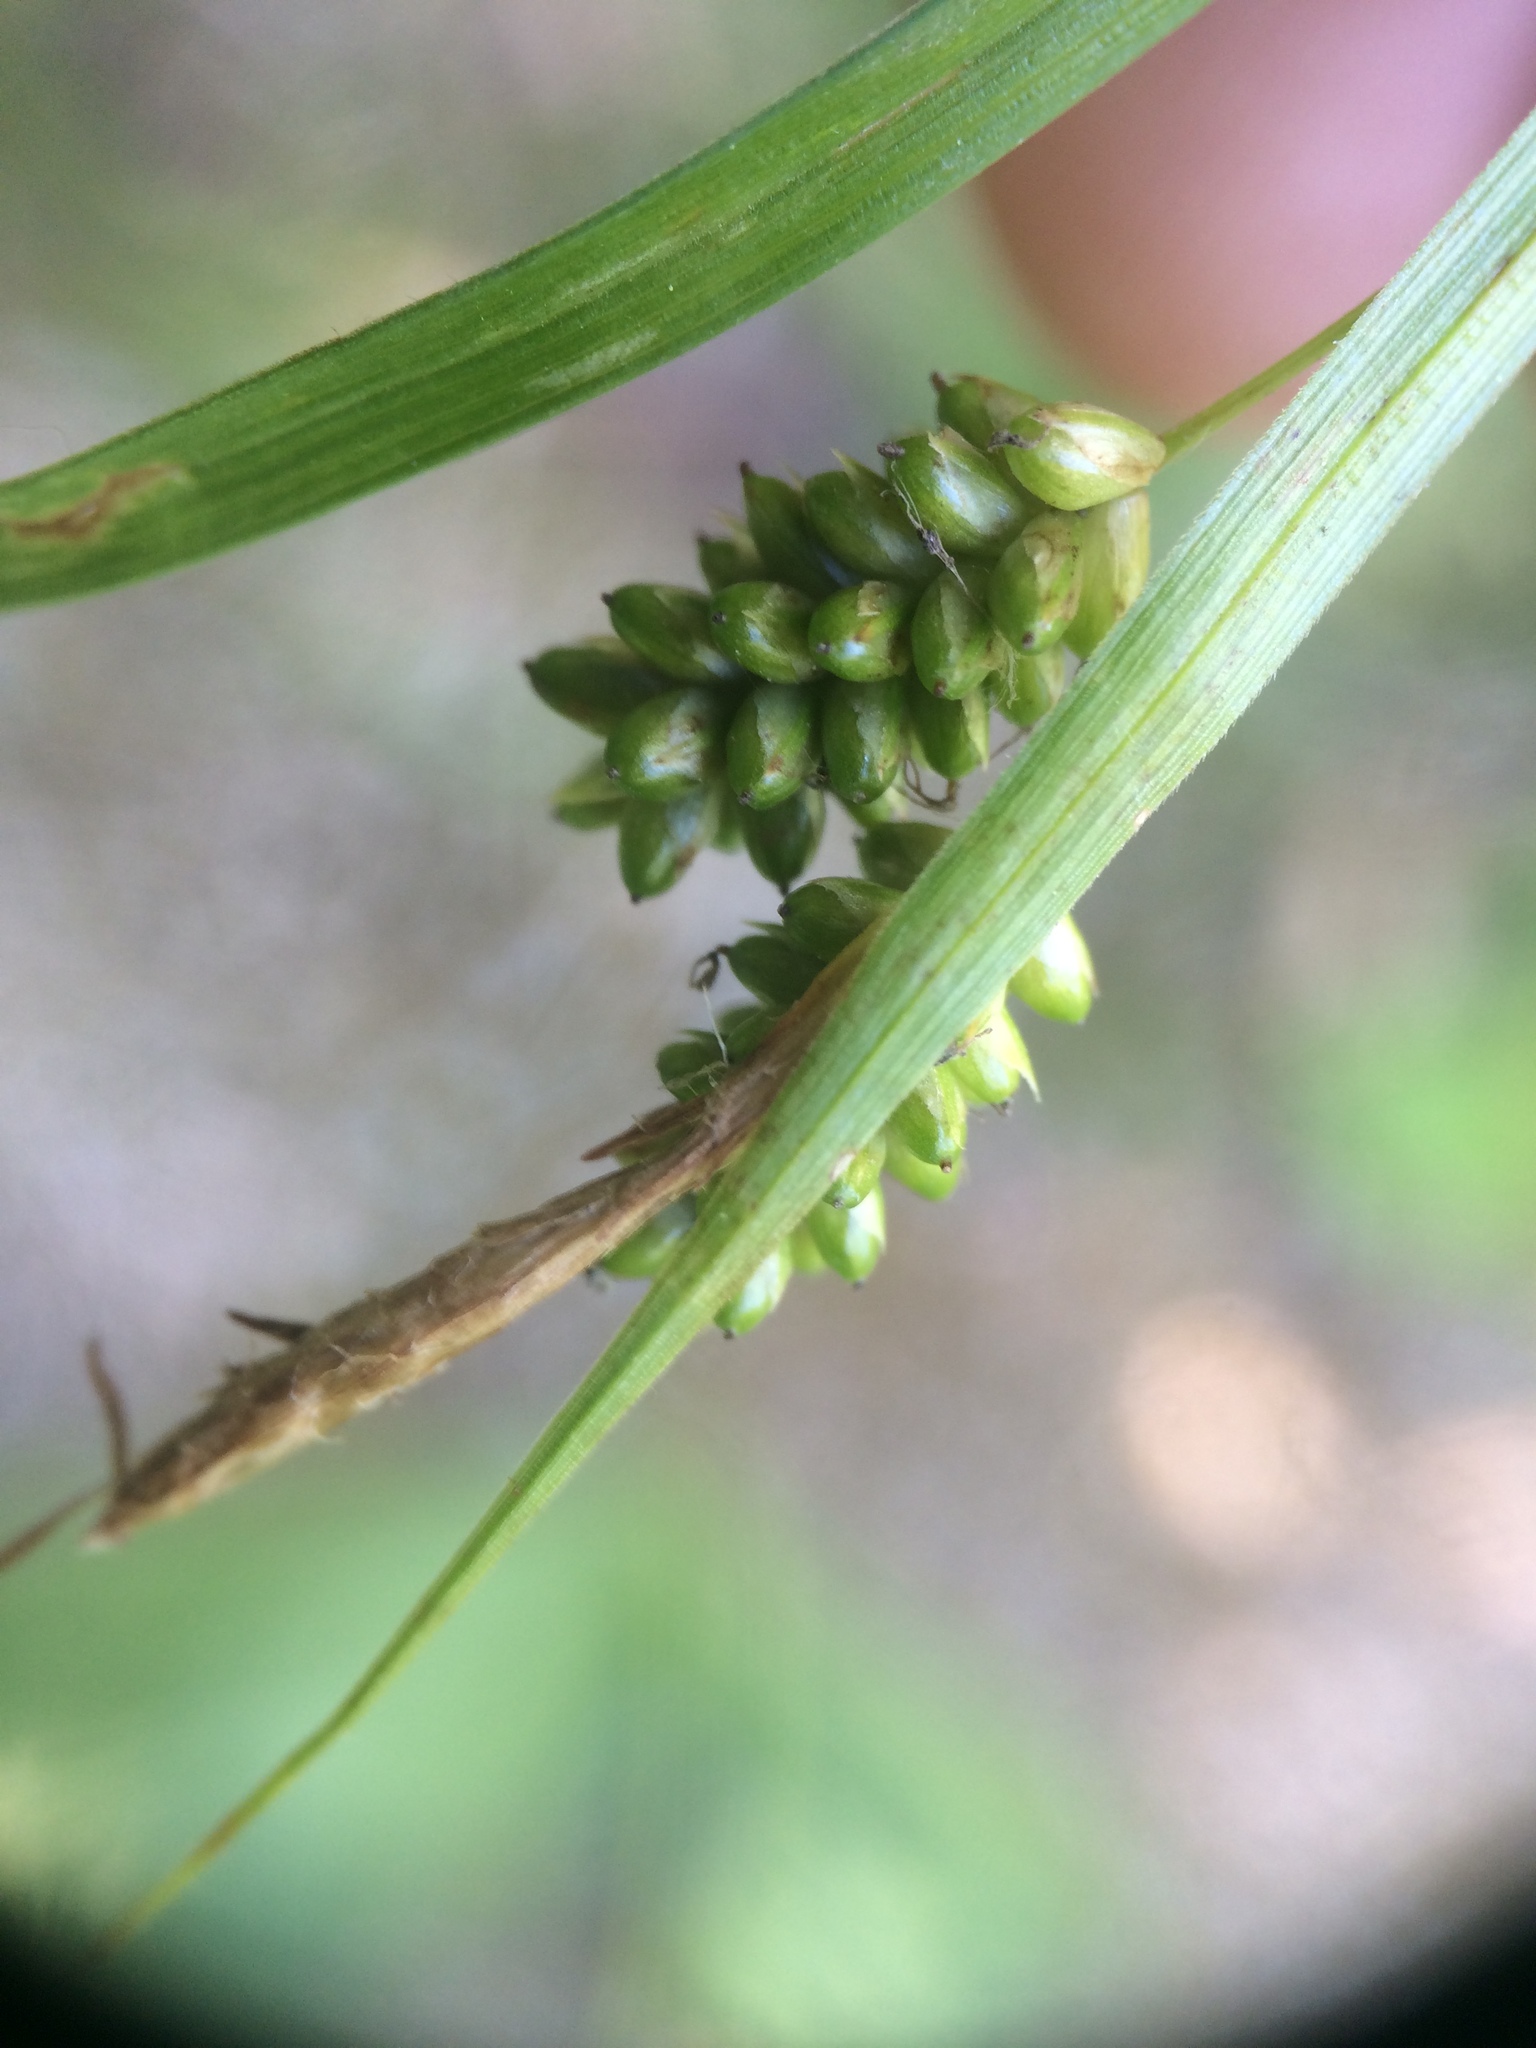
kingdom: Plantae
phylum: Tracheophyta
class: Liliopsida
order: Poales
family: Cyperaceae
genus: Carex
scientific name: Carex pallescens
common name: Pale sedge
